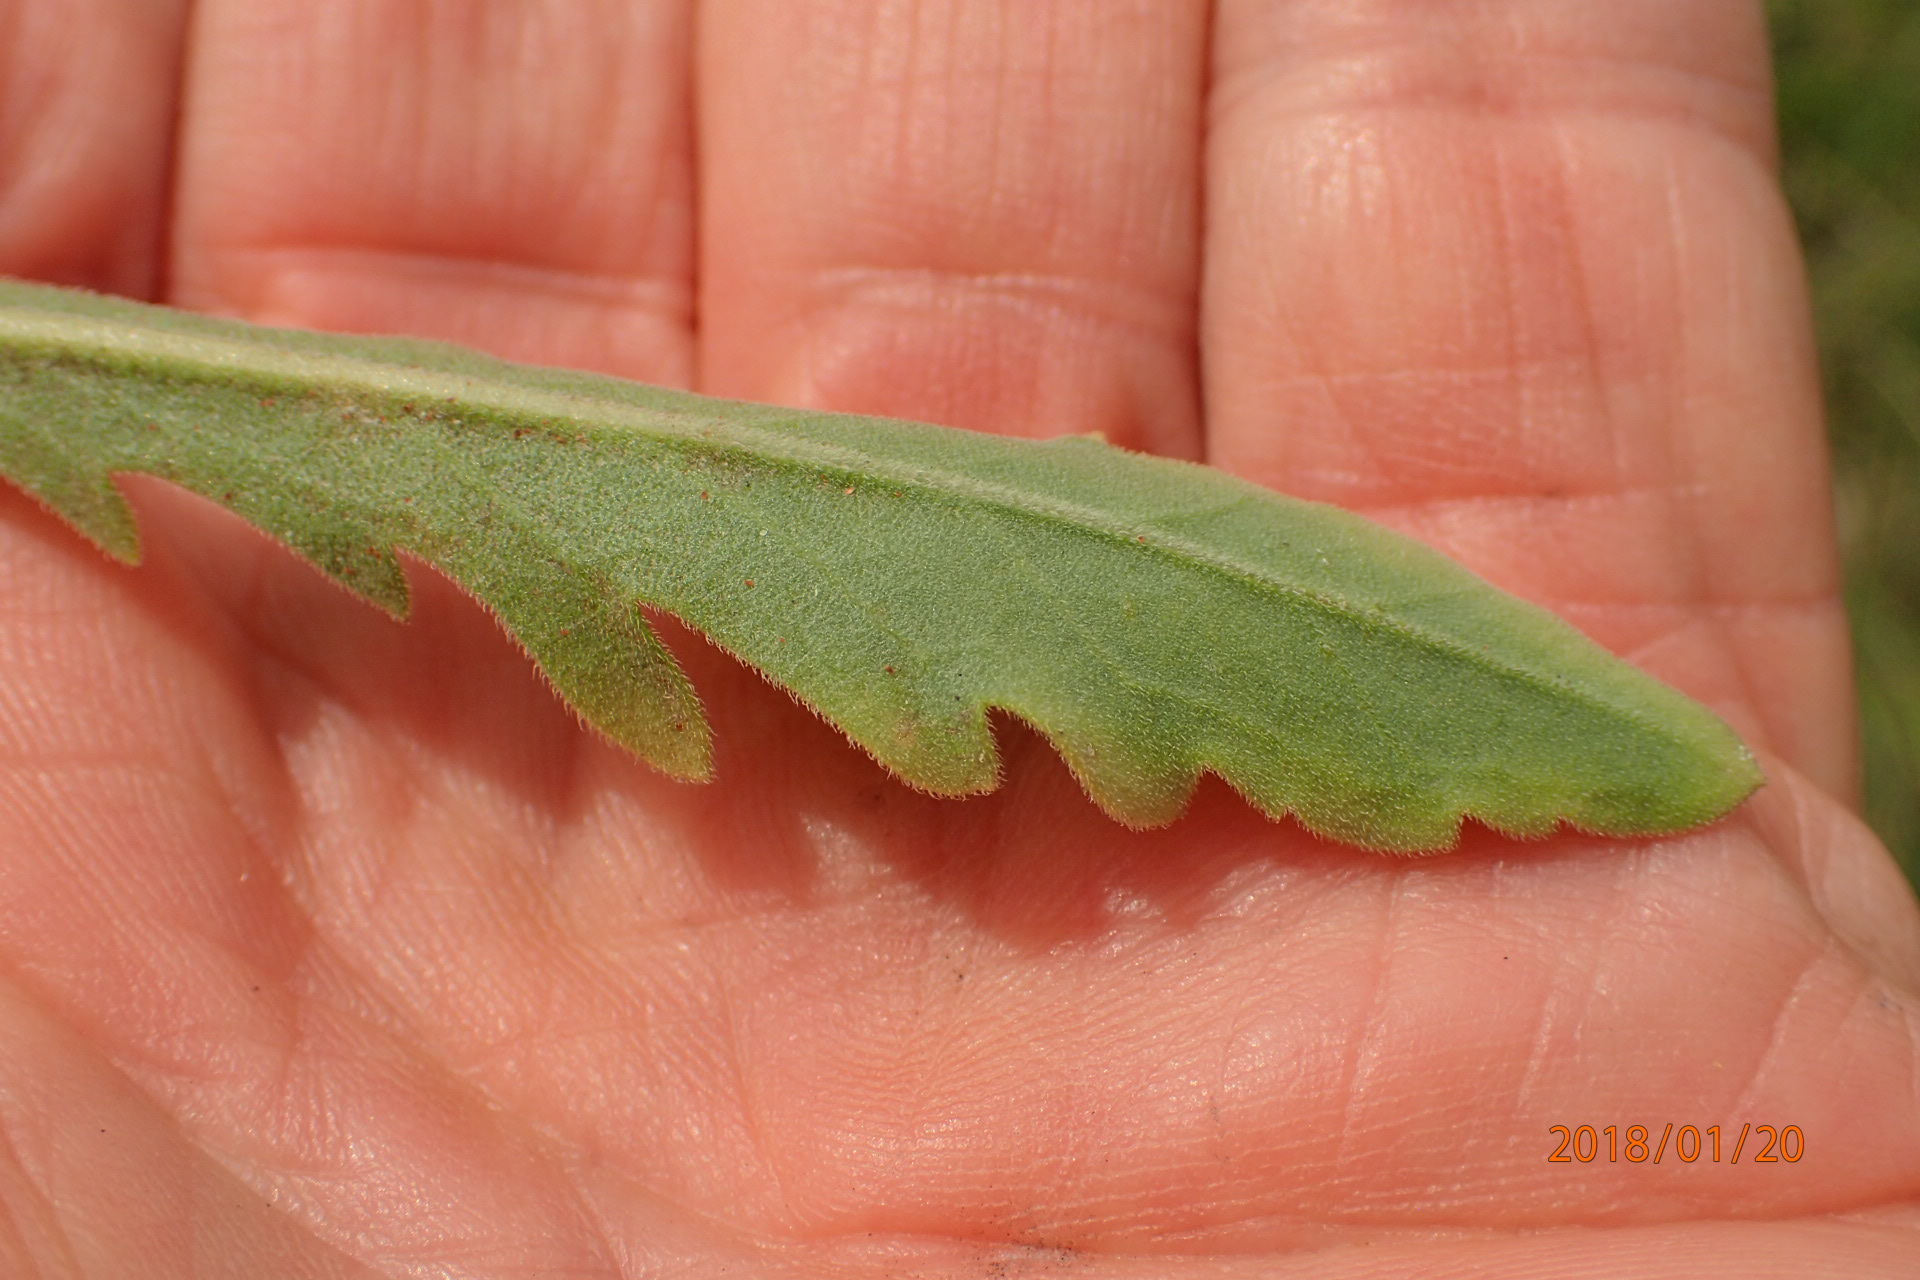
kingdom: Plantae
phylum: Tracheophyta
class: Magnoliopsida
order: Asterales
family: Asteraceae
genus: Erigeron
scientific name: Erigeron primulifolius
